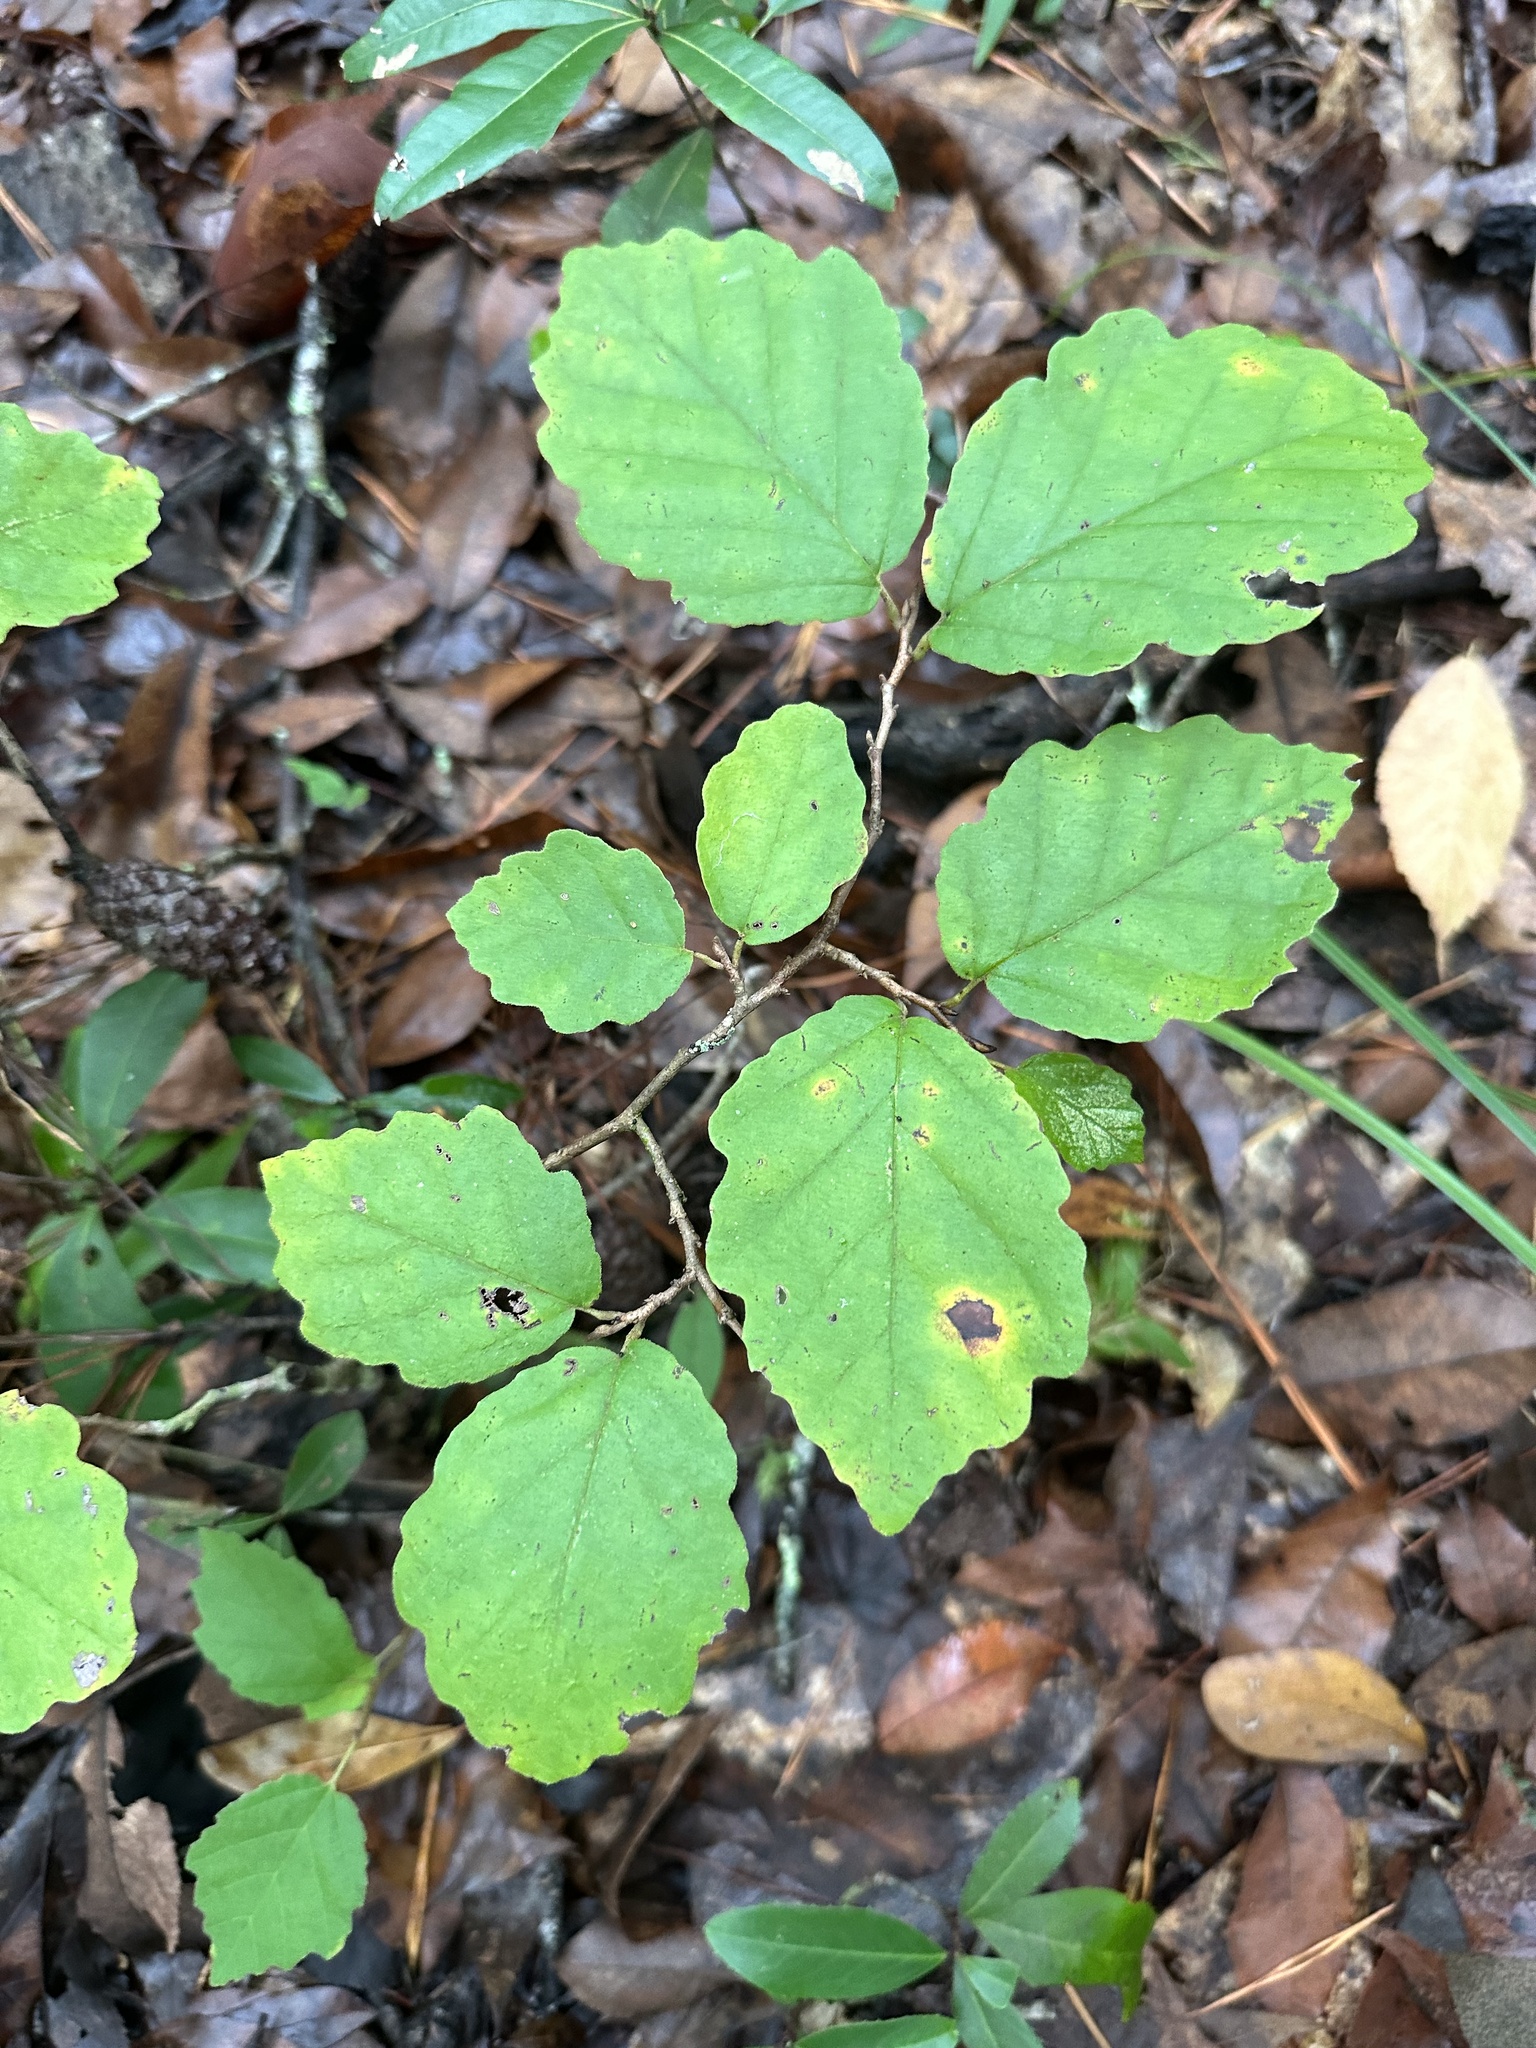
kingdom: Plantae
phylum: Tracheophyta
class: Magnoliopsida
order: Saxifragales
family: Hamamelidaceae
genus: Hamamelis
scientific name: Hamamelis virginiana
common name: Witch-hazel
